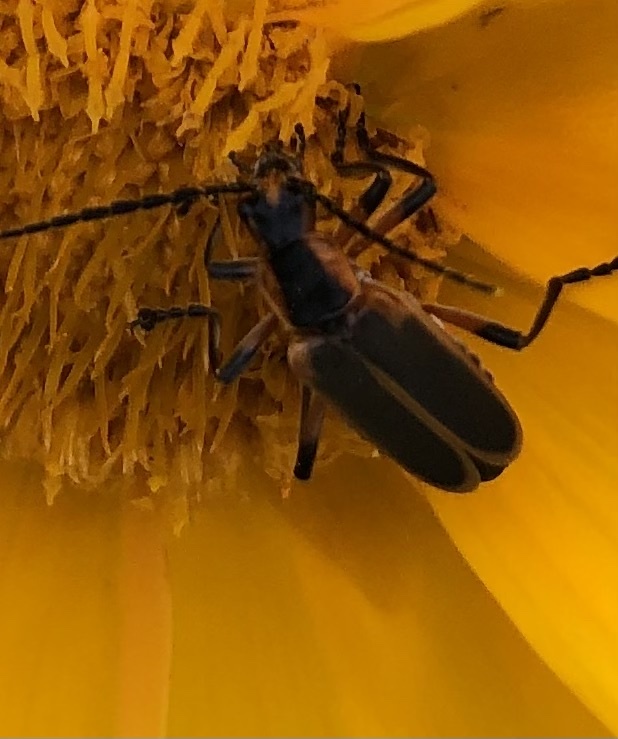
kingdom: Animalia
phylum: Arthropoda
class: Insecta
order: Coleoptera
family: Cantharidae
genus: Chauliognathus
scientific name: Chauliognathus marginatus
